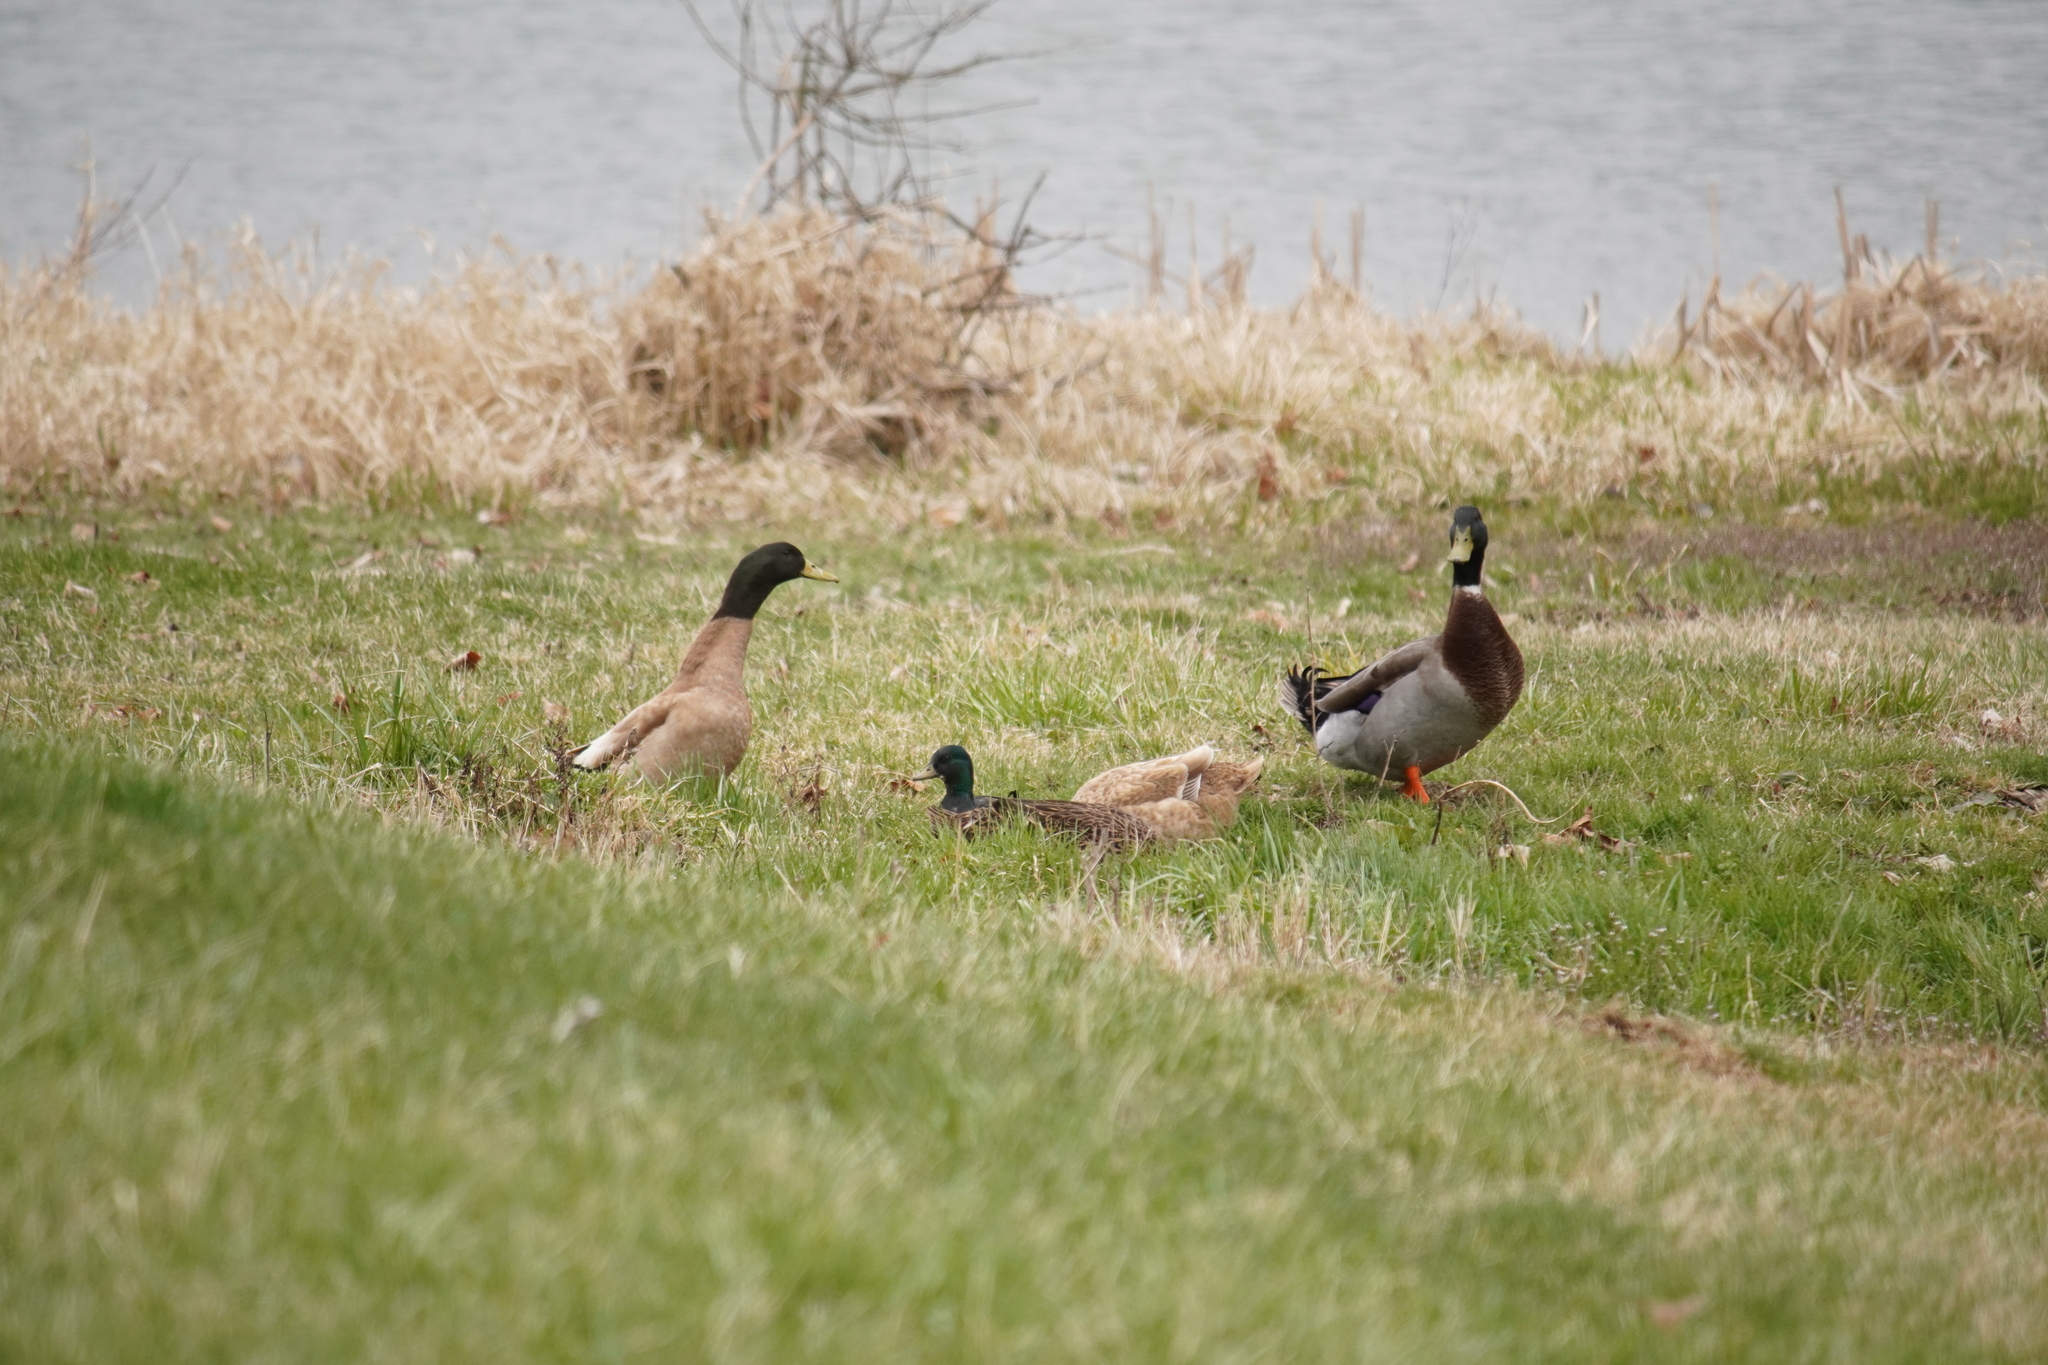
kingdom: Animalia
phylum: Chordata
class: Aves
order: Anseriformes
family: Anatidae
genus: Anas
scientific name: Anas platyrhynchos
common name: Mallard
